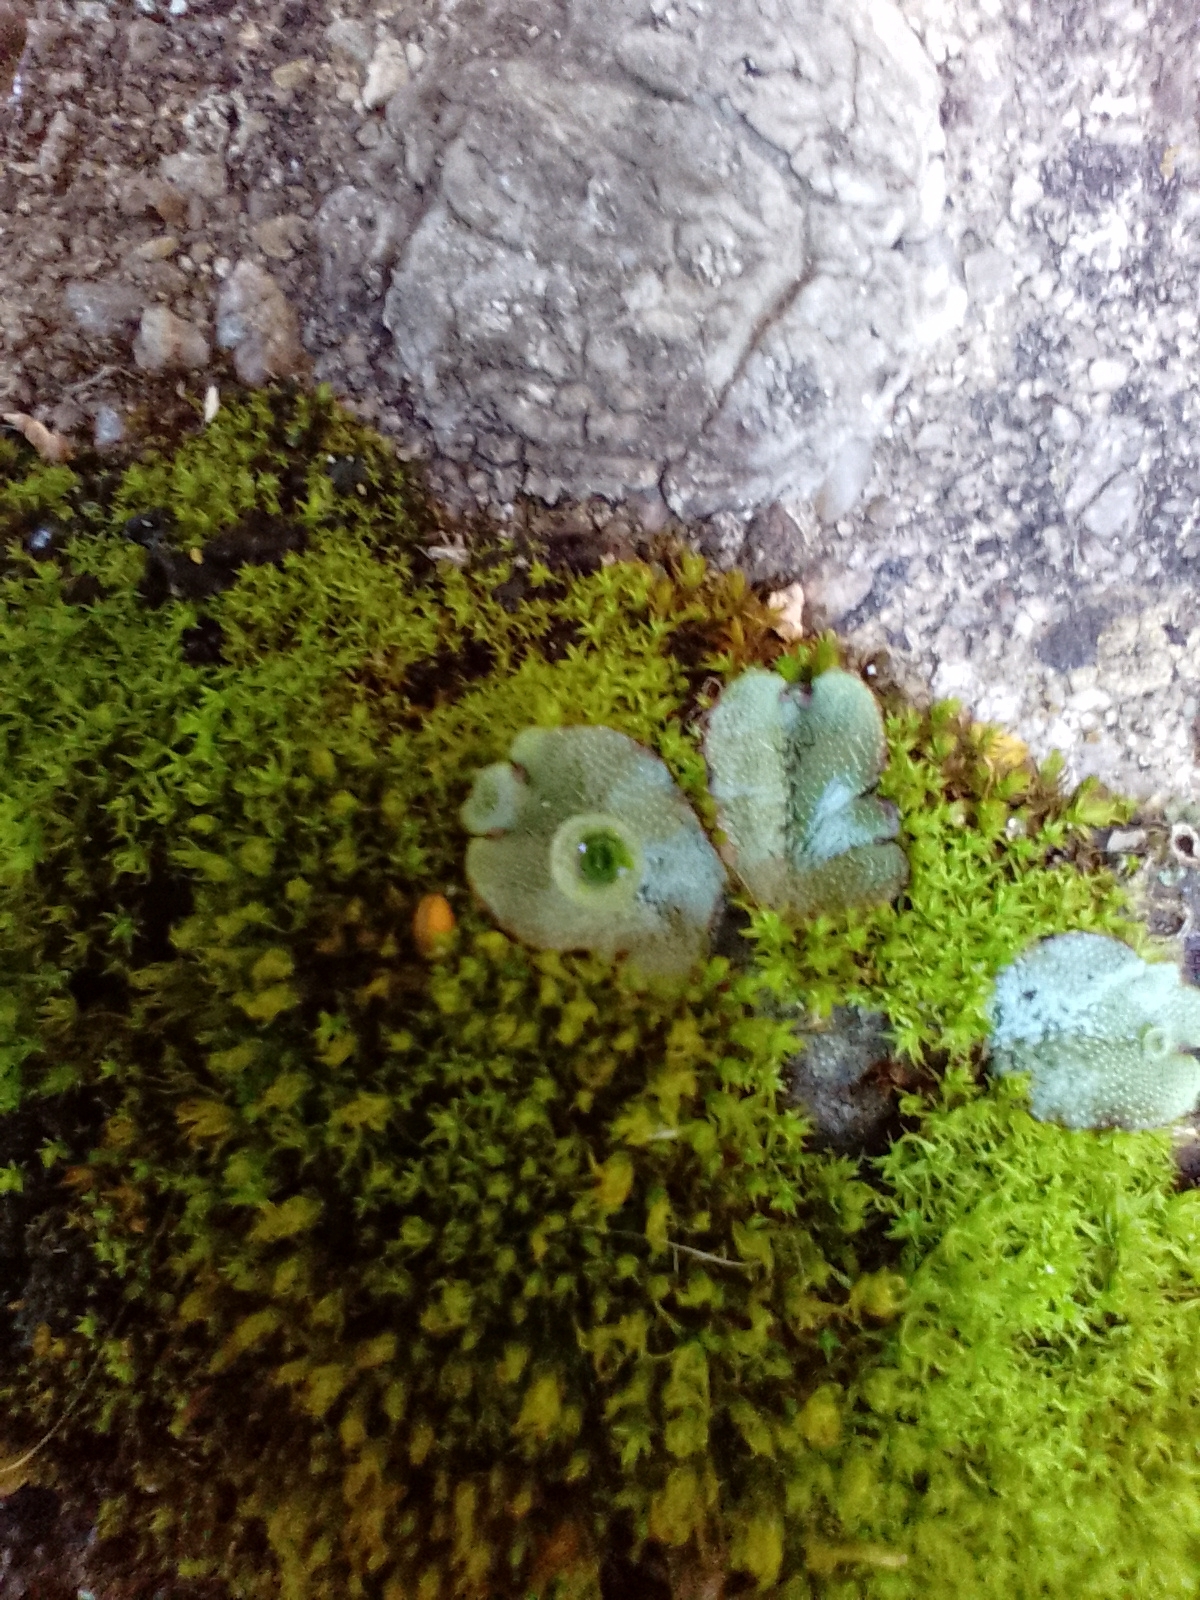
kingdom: Plantae
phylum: Marchantiophyta
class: Marchantiopsida
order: Marchantiales
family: Marchantiaceae
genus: Marchantia
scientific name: Marchantia polymorpha
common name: Common liverwort
